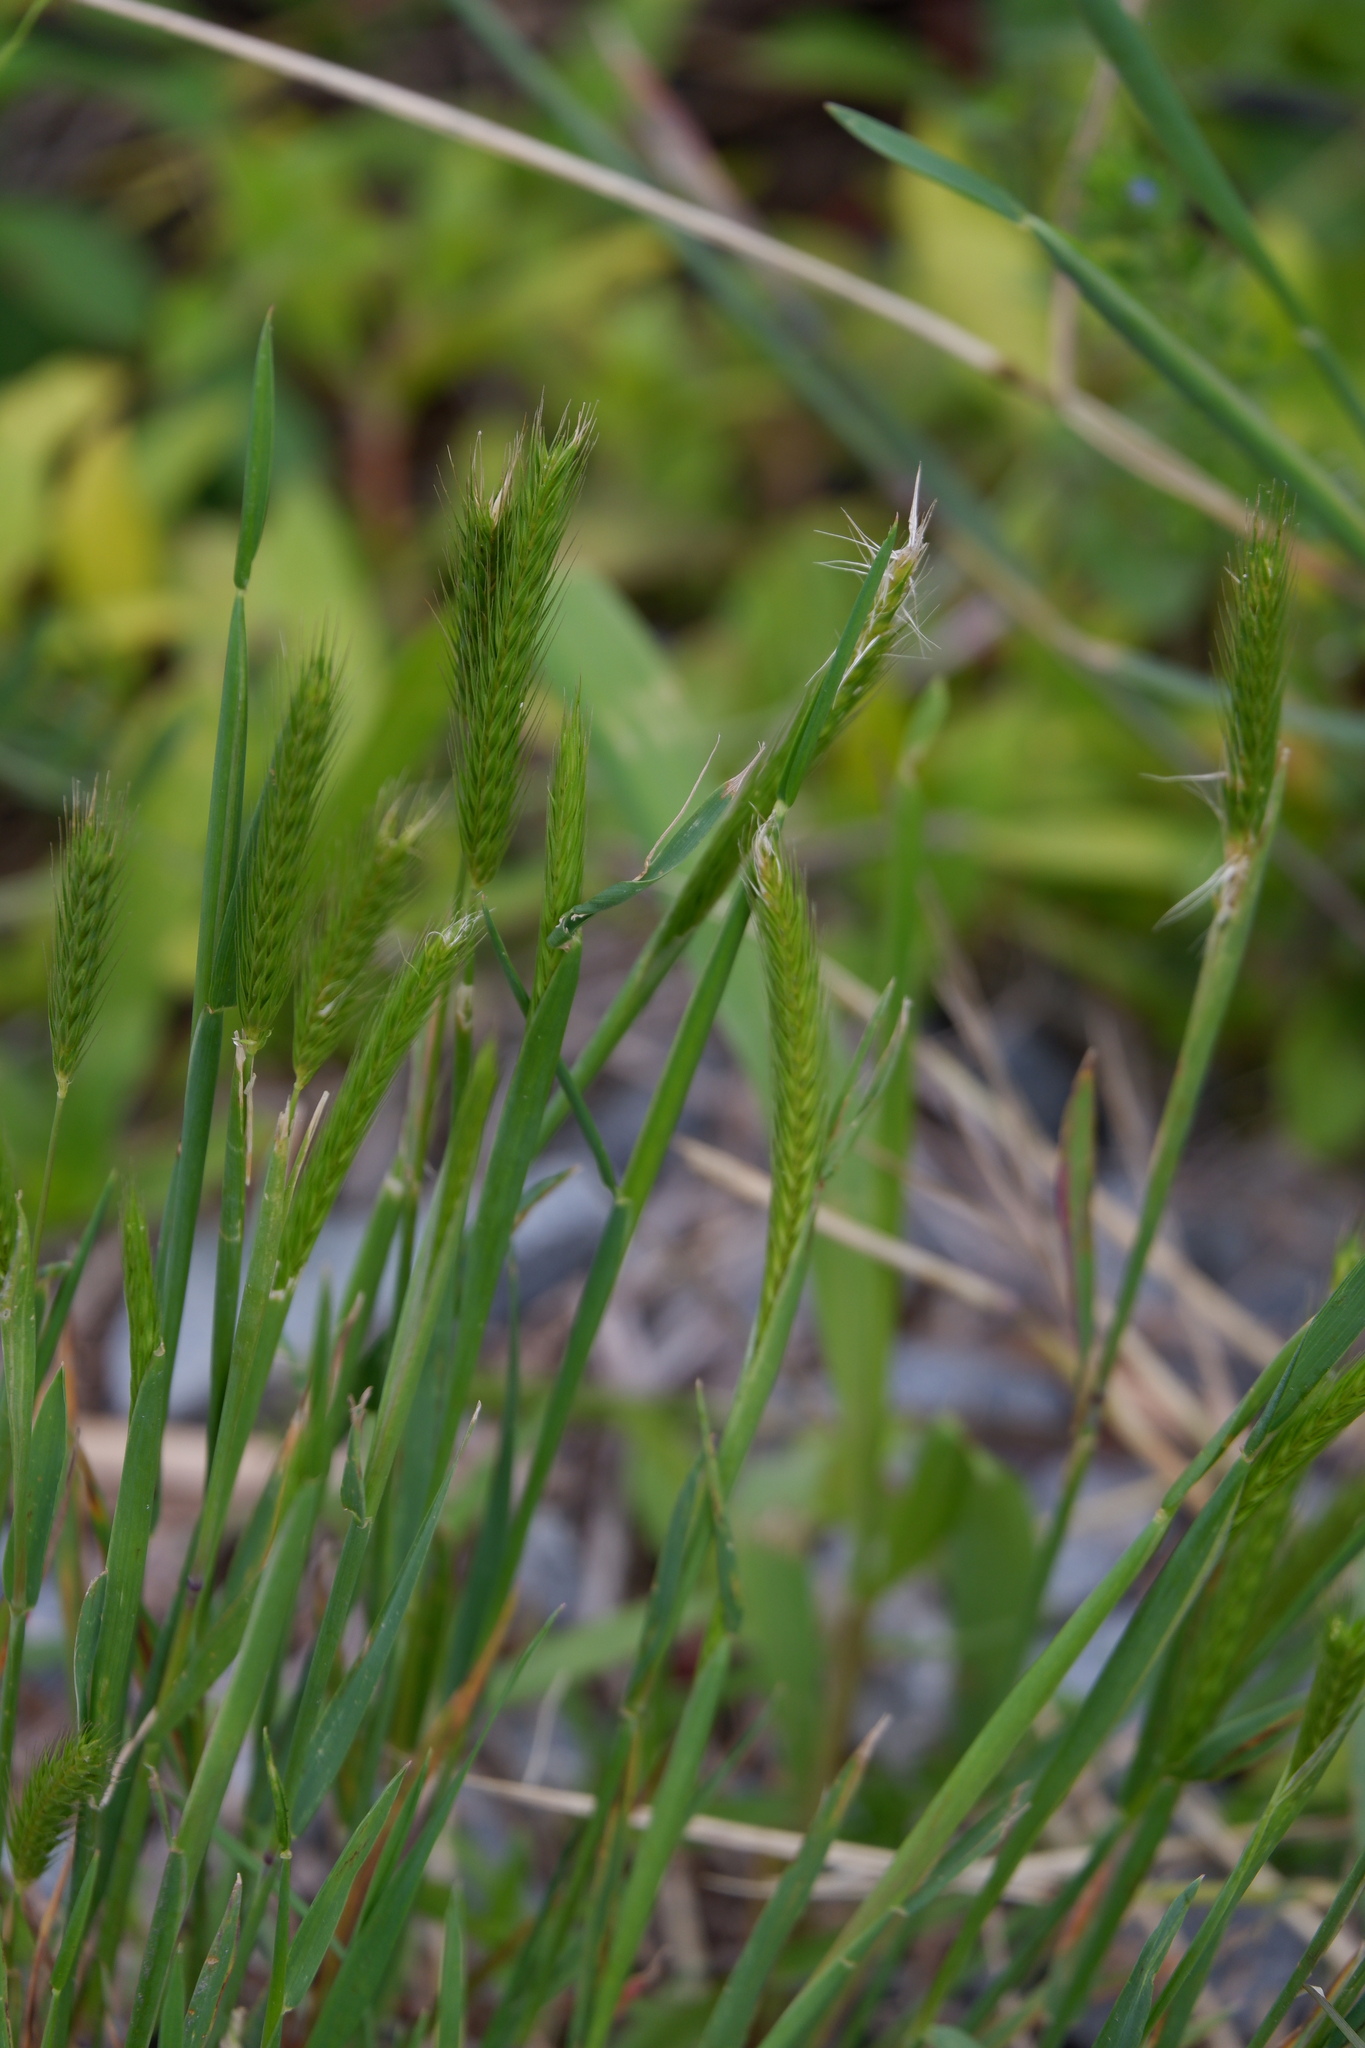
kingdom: Plantae
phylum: Tracheophyta
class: Liliopsida
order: Poales
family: Poaceae
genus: Hordeum
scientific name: Hordeum pusillum
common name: Little barley
